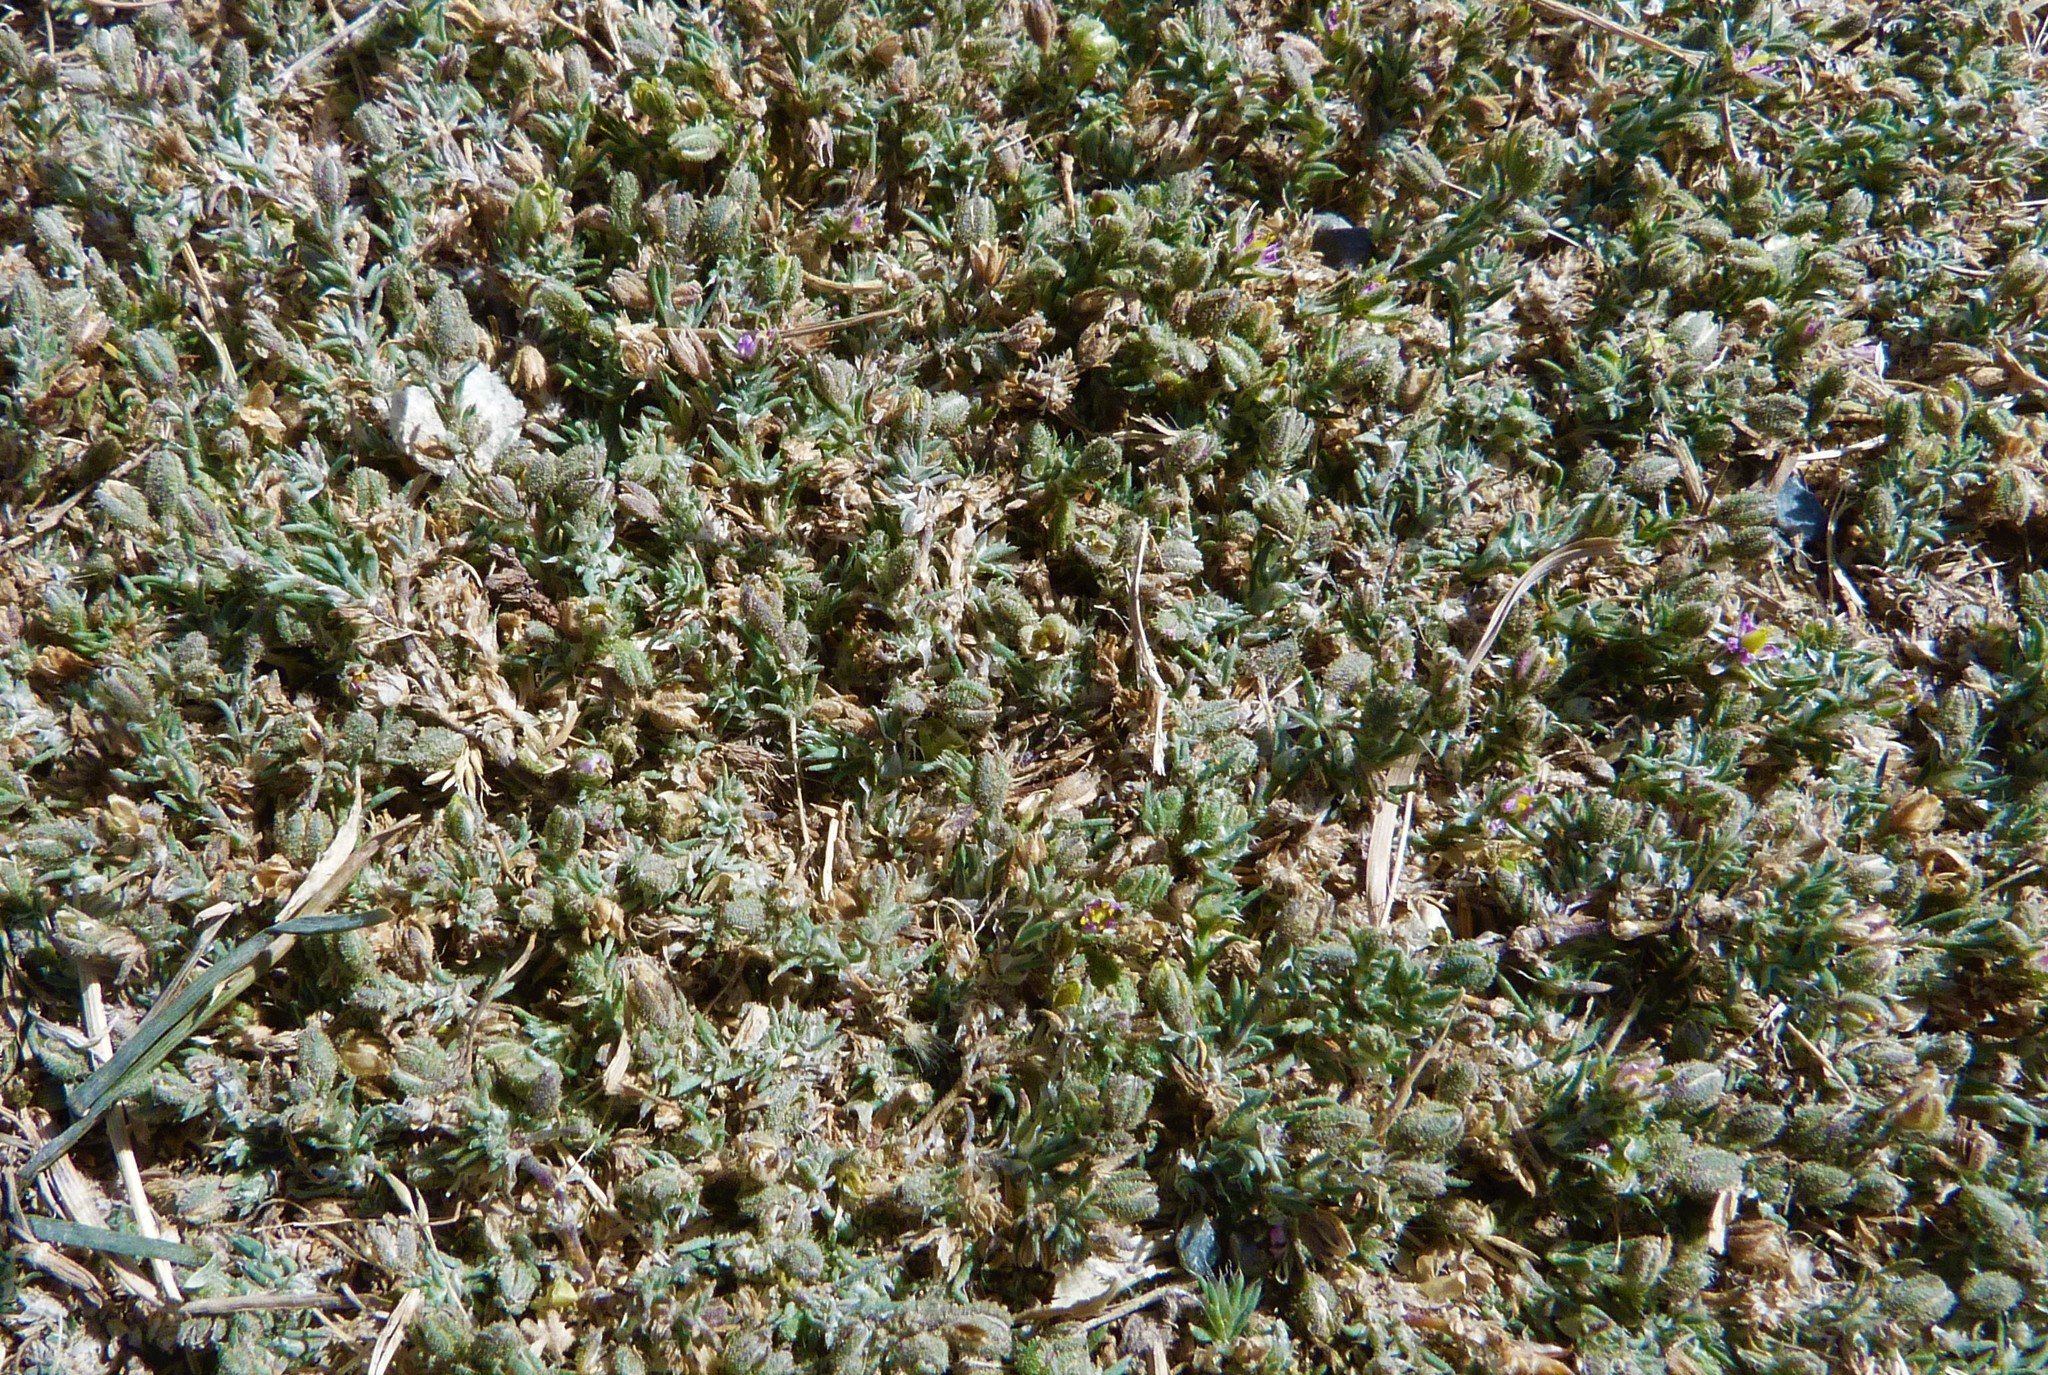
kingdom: Plantae
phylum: Tracheophyta
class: Magnoliopsida
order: Caryophyllales
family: Caryophyllaceae
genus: Spergularia
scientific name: Spergularia rubra
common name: Red sand-spurrey
